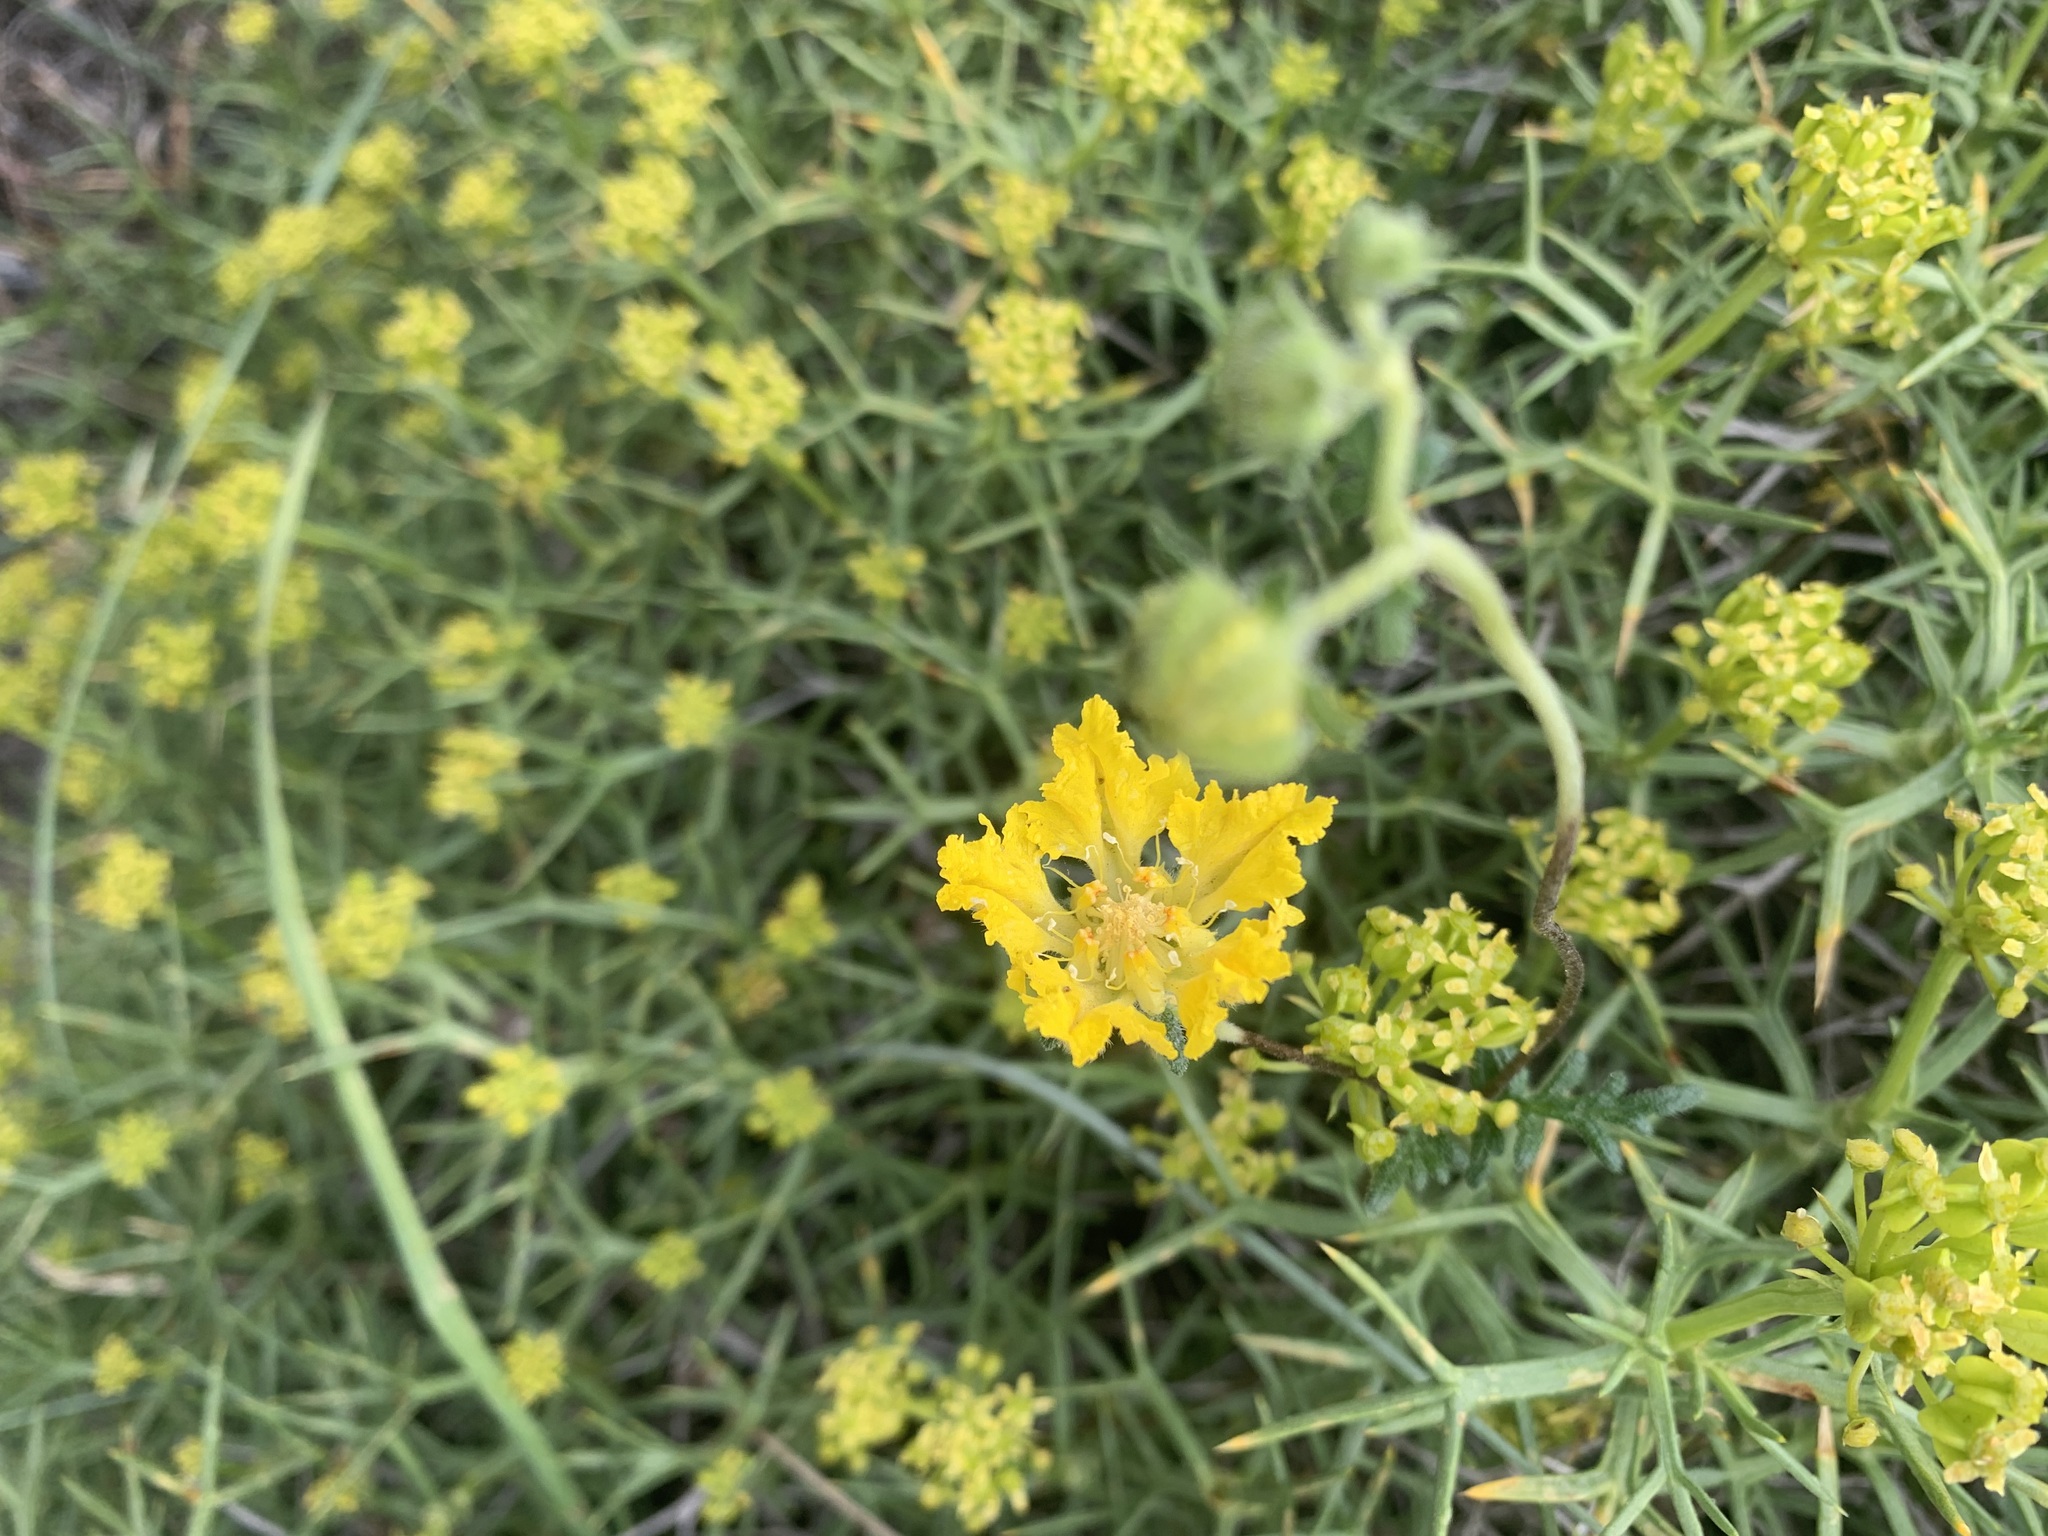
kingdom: Plantae
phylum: Tracheophyta
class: Magnoliopsida
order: Cornales
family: Loasaceae
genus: Pinnasa
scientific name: Pinnasa bergii
